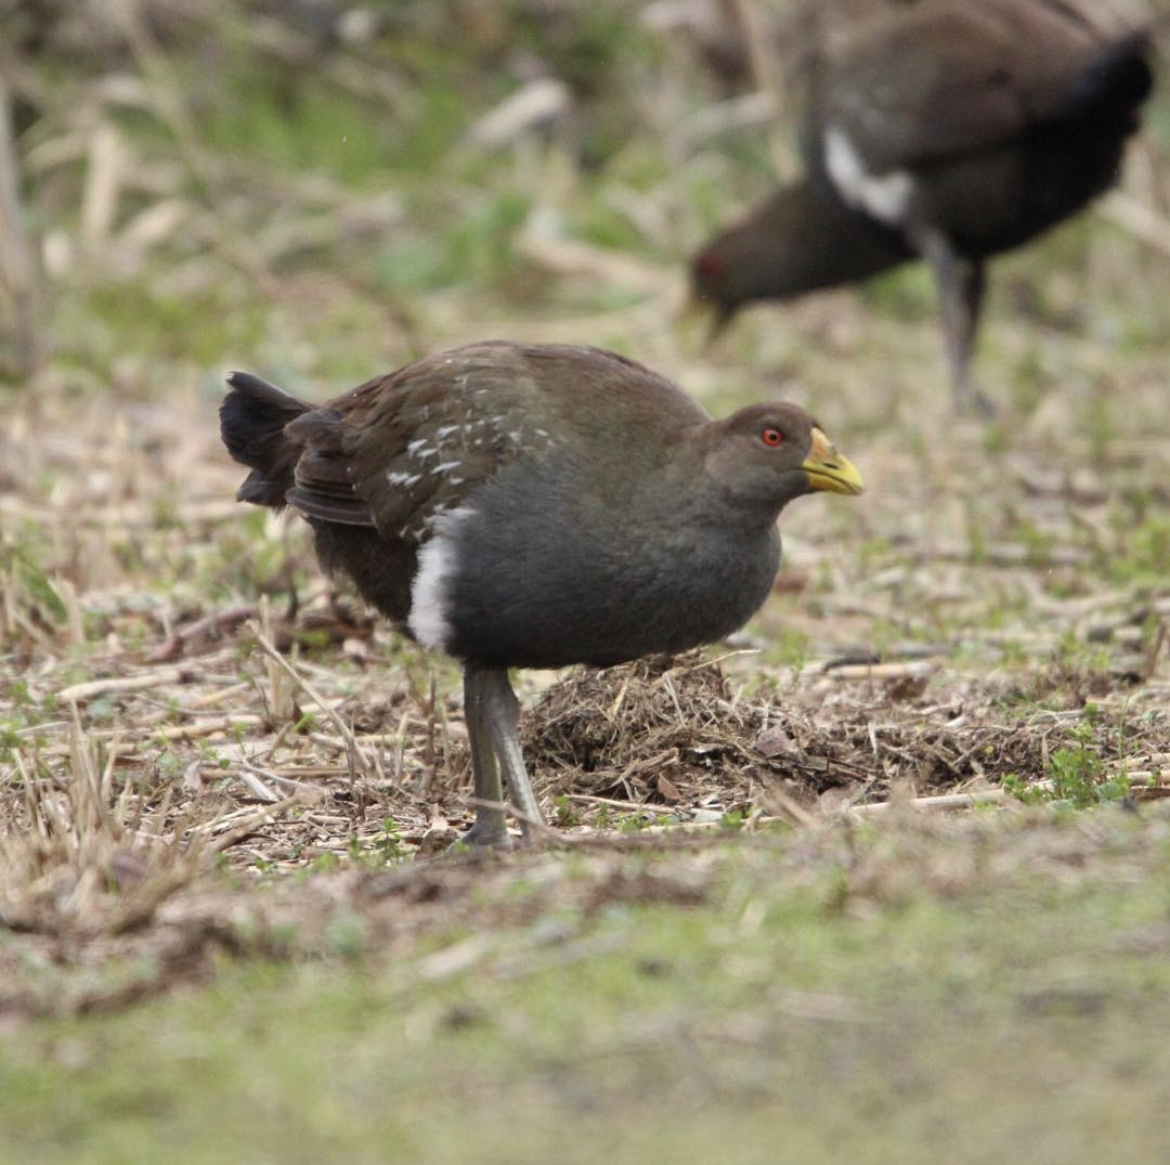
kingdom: Animalia
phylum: Chordata
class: Aves
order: Gruiformes
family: Rallidae
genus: Gallinula
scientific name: Gallinula mortierii
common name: Tasmanian nativehen
